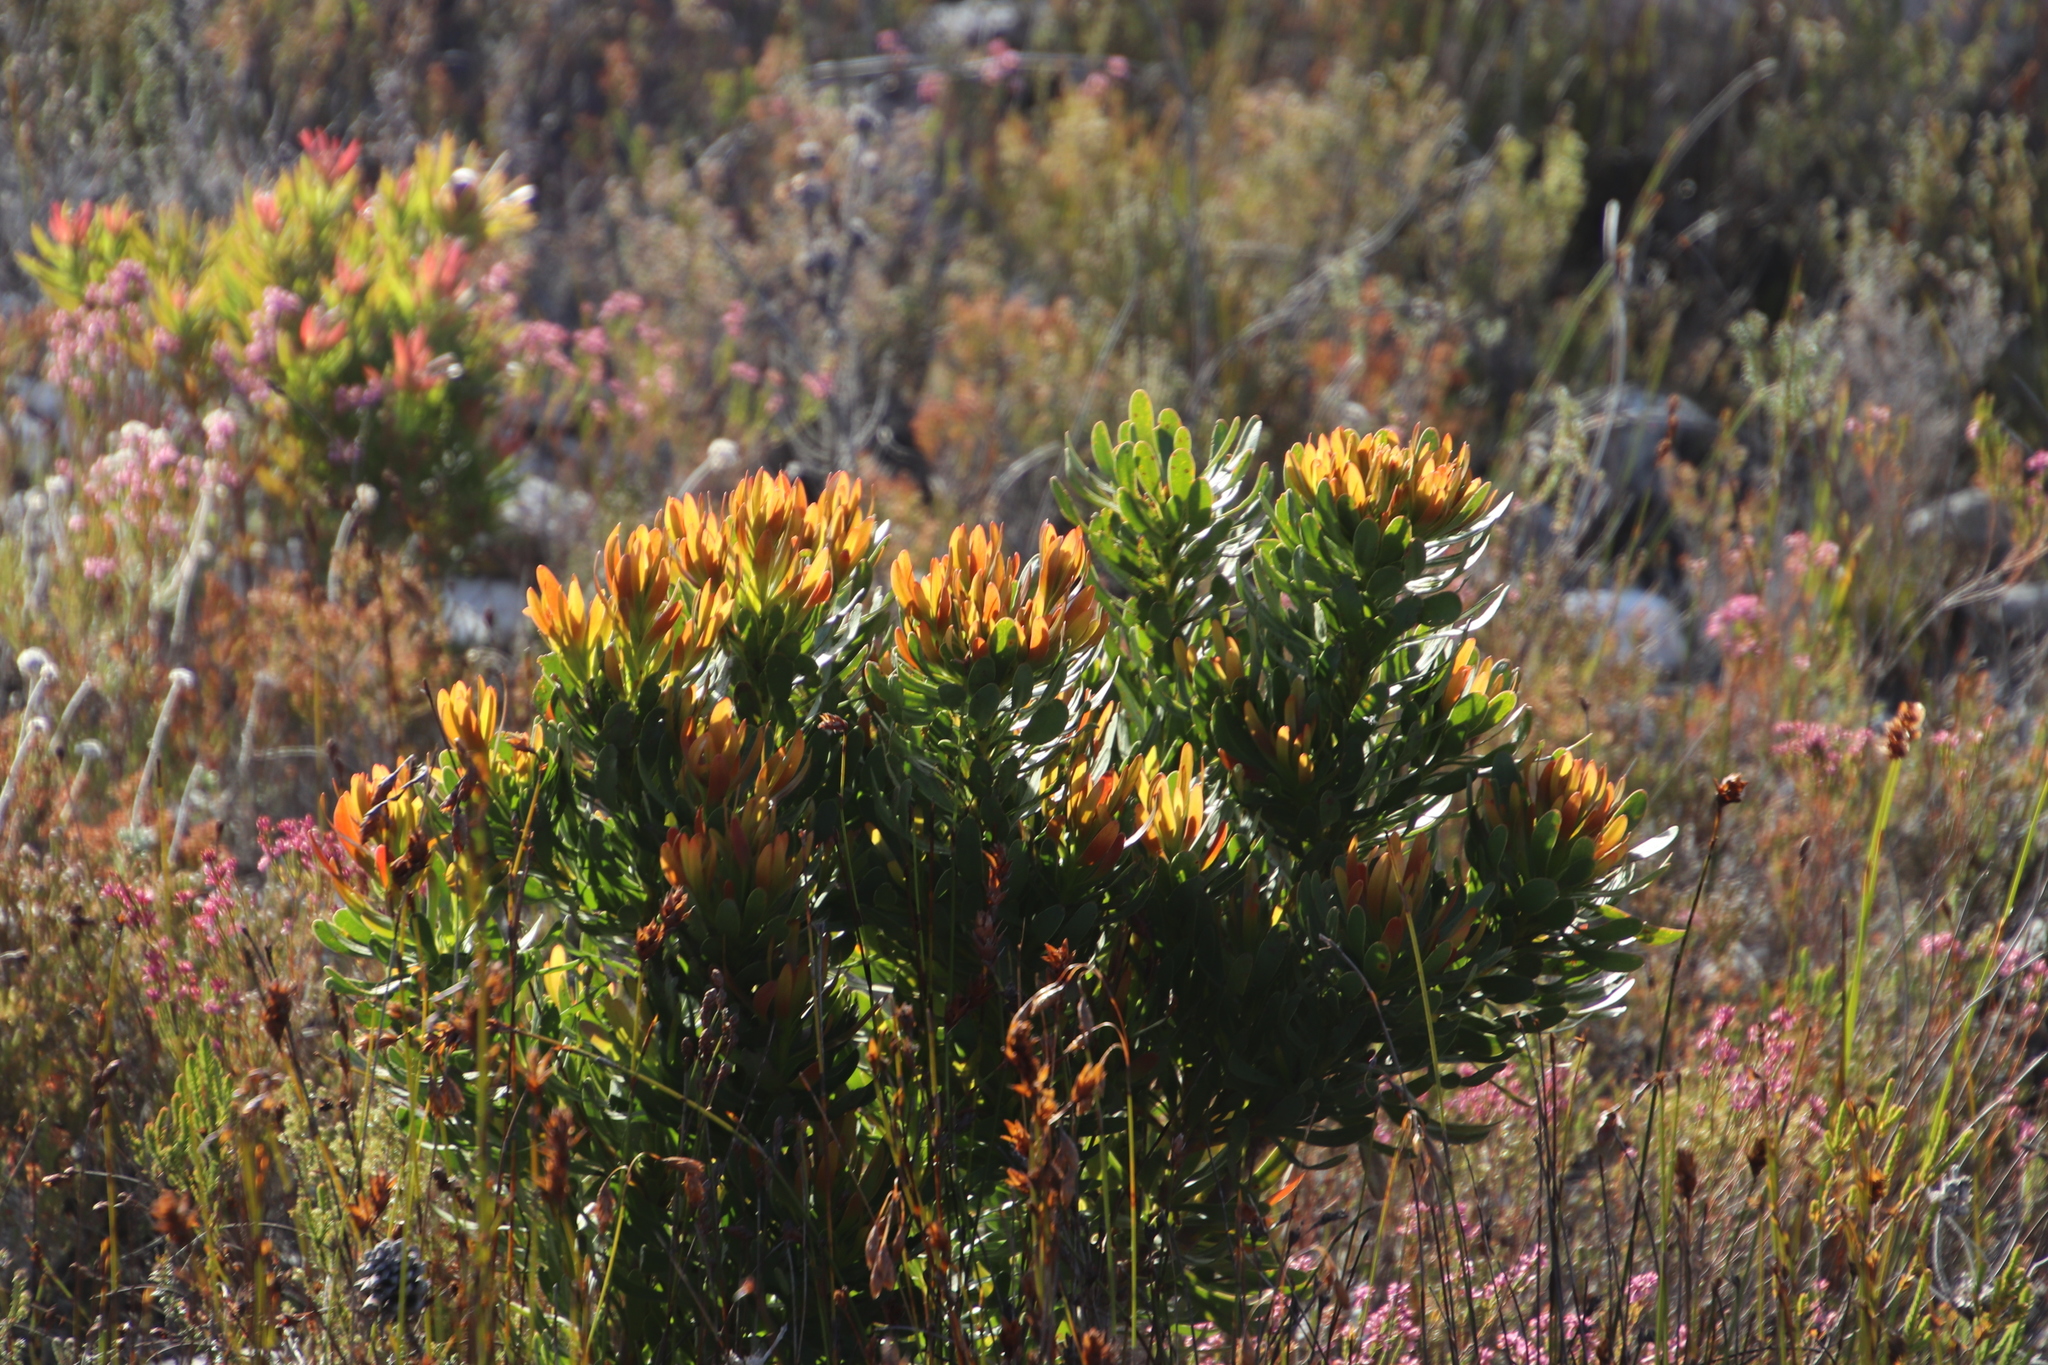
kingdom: Plantae
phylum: Tracheophyta
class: Magnoliopsida
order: Proteales
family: Proteaceae
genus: Aulax
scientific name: Aulax umbellata
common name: Broad-leaf featherbush
